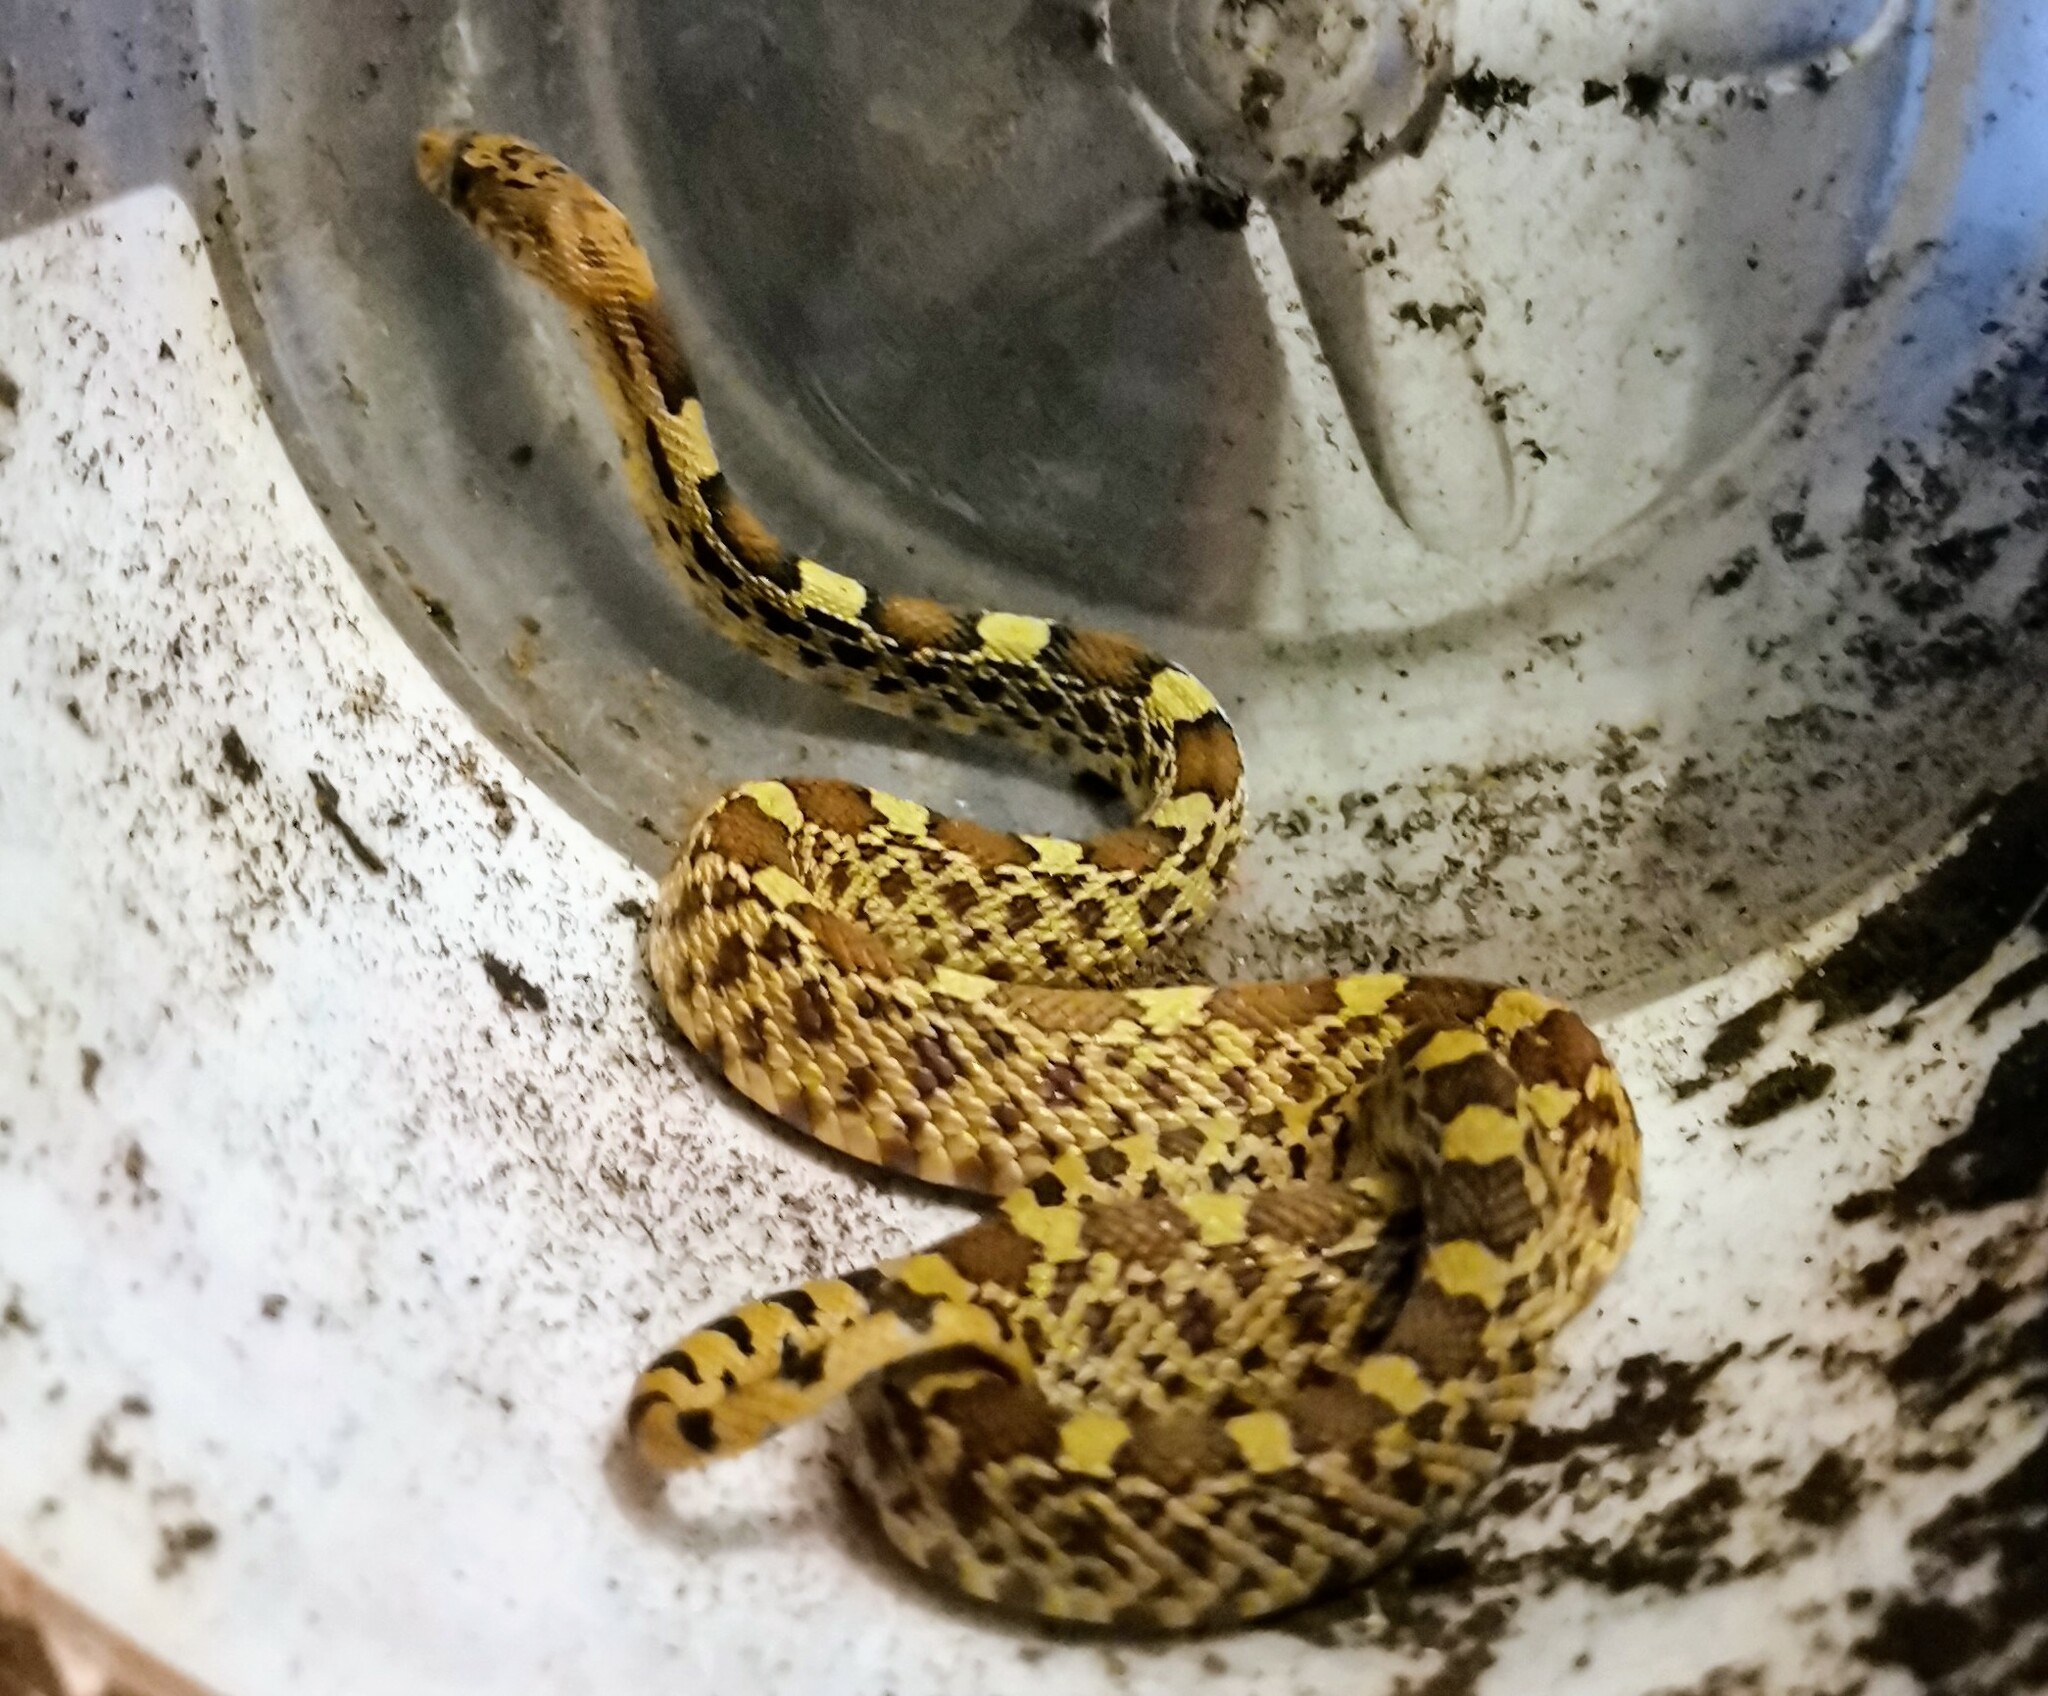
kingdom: Animalia
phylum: Chordata
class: Squamata
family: Colubridae
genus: Pituophis
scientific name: Pituophis deppei
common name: Mexican bull snake
